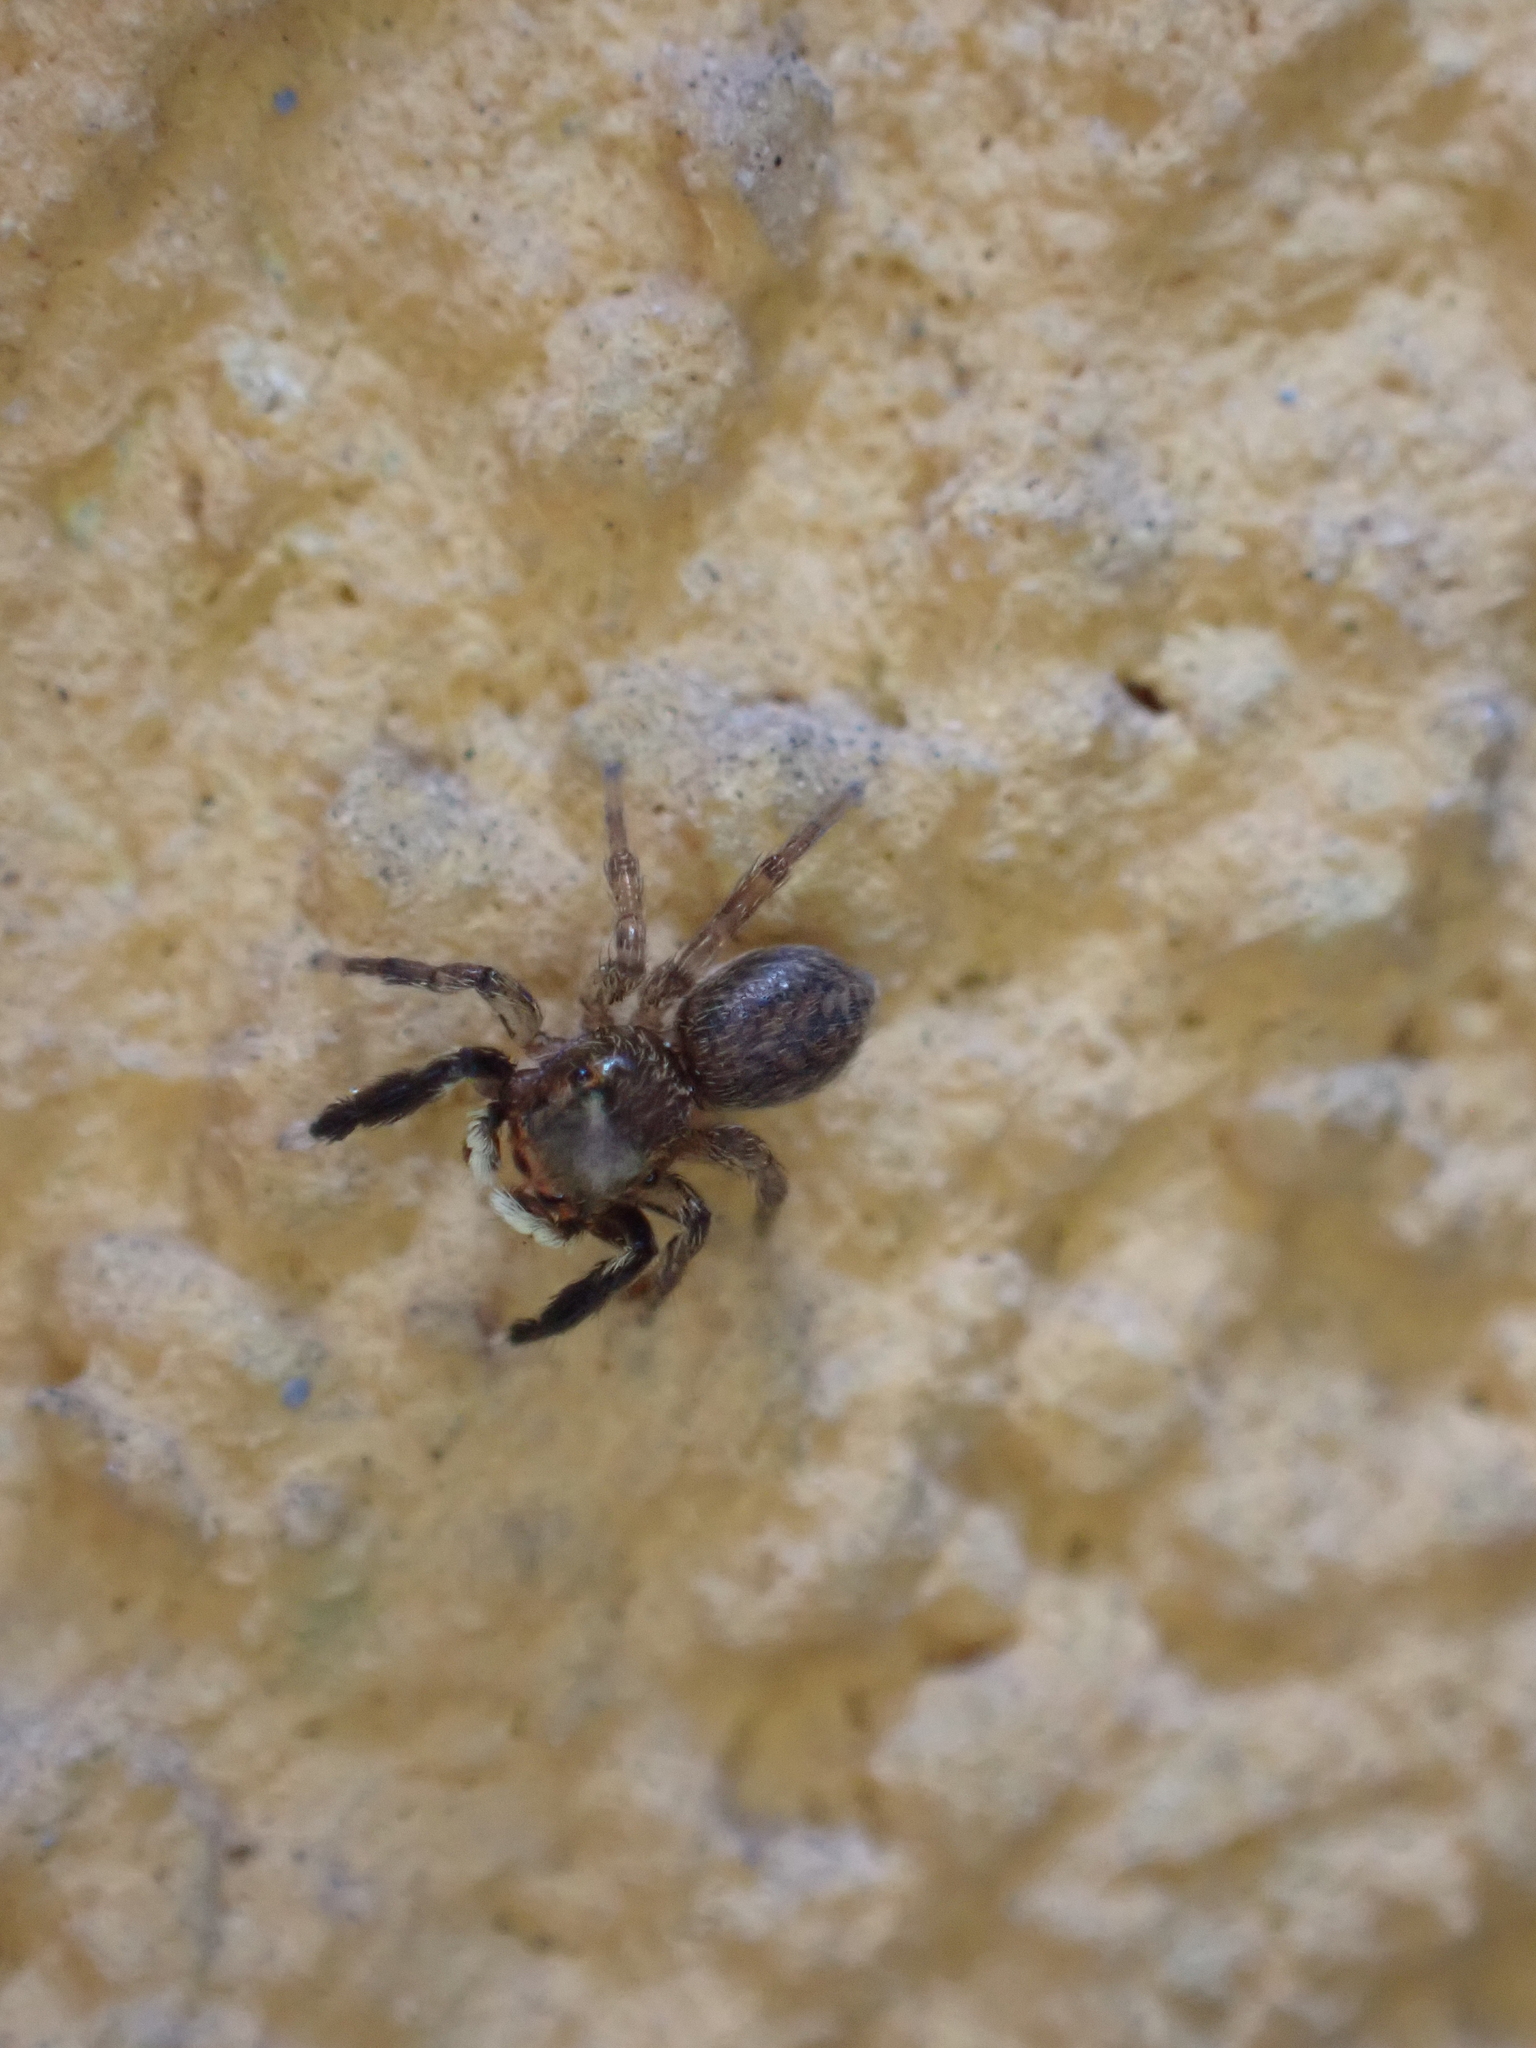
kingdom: Animalia
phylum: Arthropoda
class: Arachnida
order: Araneae
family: Salticidae
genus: Euophrys
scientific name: Euophrys frontalis
